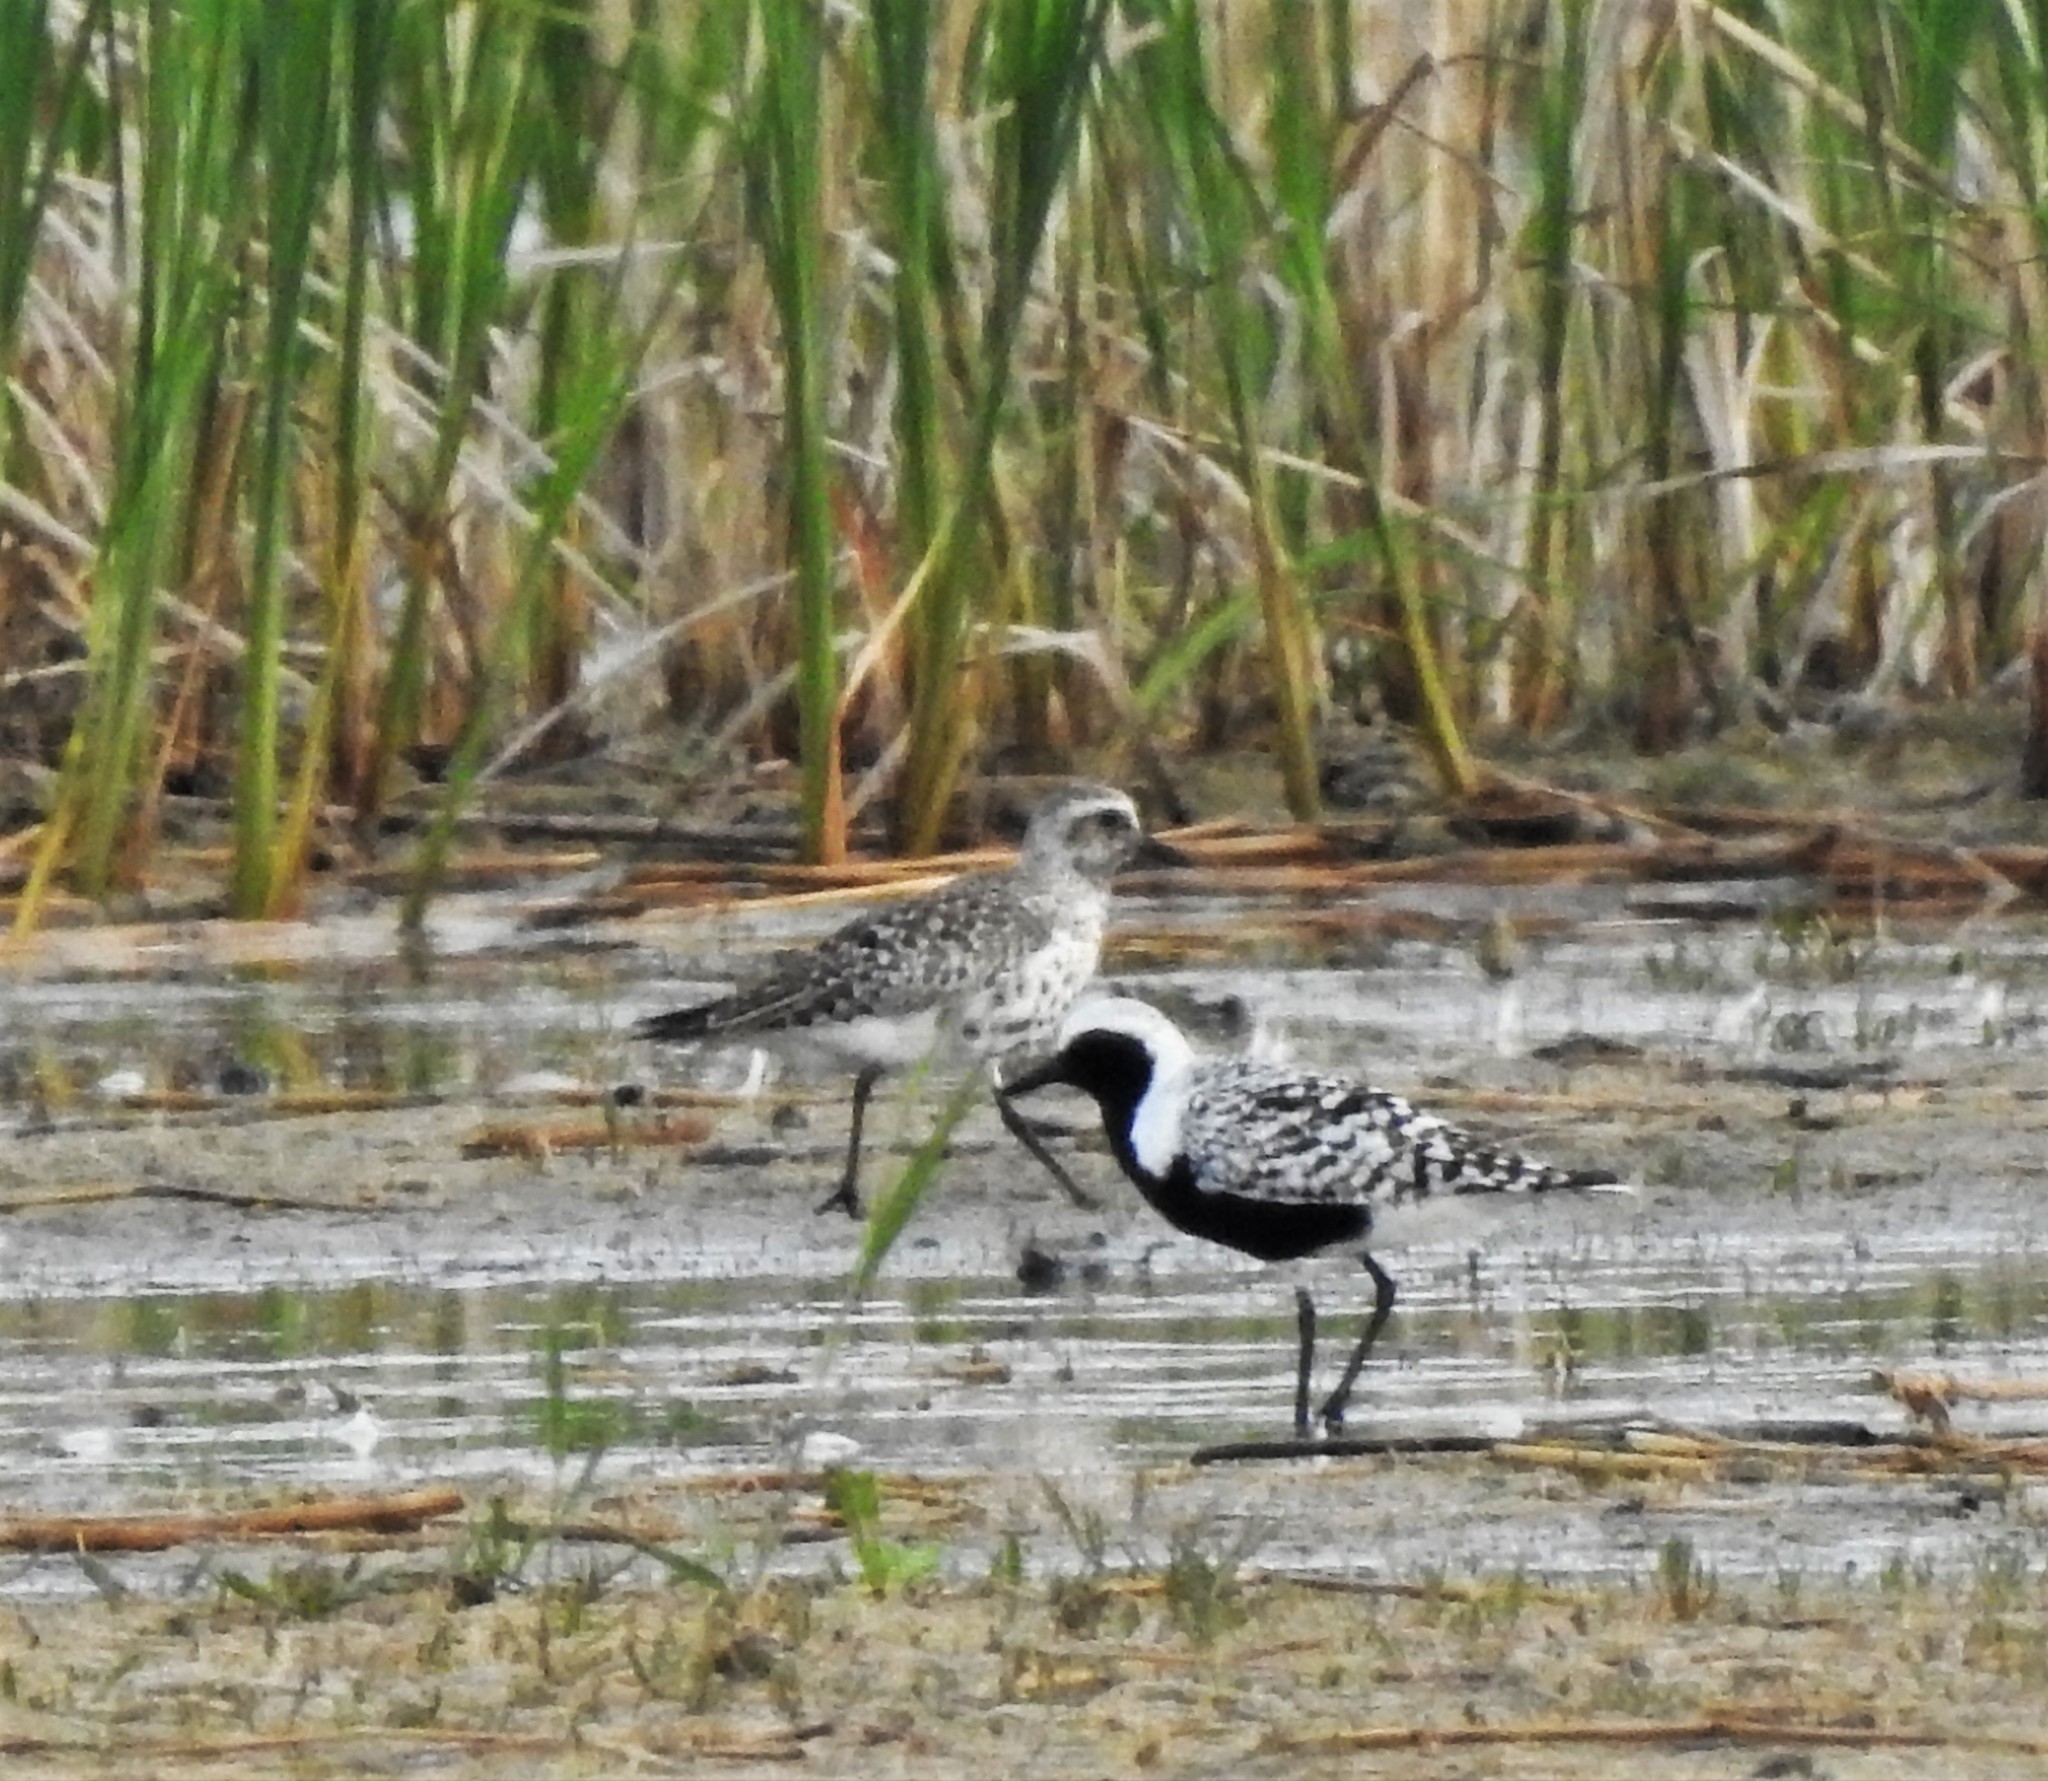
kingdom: Animalia
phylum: Chordata
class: Aves
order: Charadriiformes
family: Charadriidae
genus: Pluvialis
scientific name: Pluvialis squatarola
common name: Grey plover
